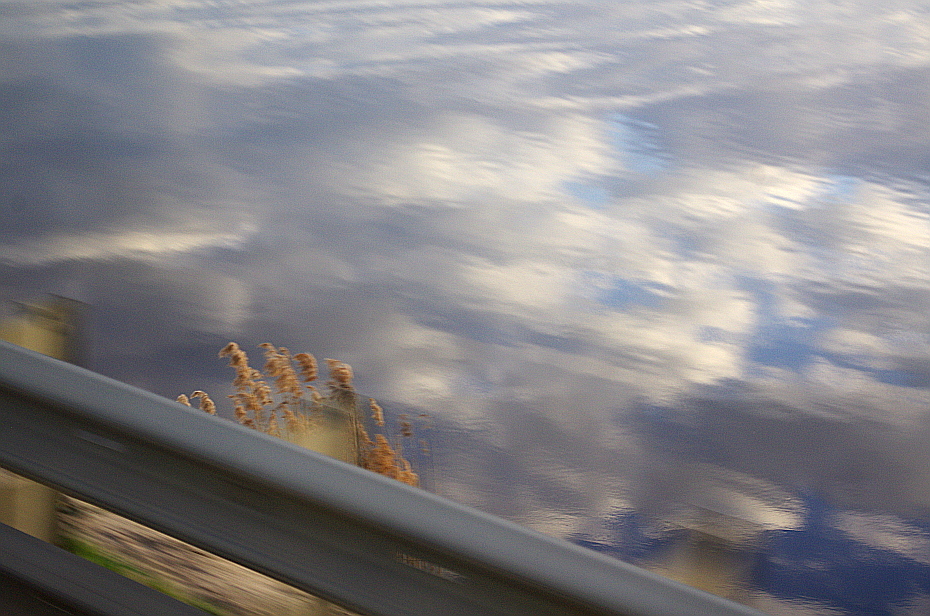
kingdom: Plantae
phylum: Tracheophyta
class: Liliopsida
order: Poales
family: Poaceae
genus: Phragmites
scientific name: Phragmites australis
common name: Common reed
